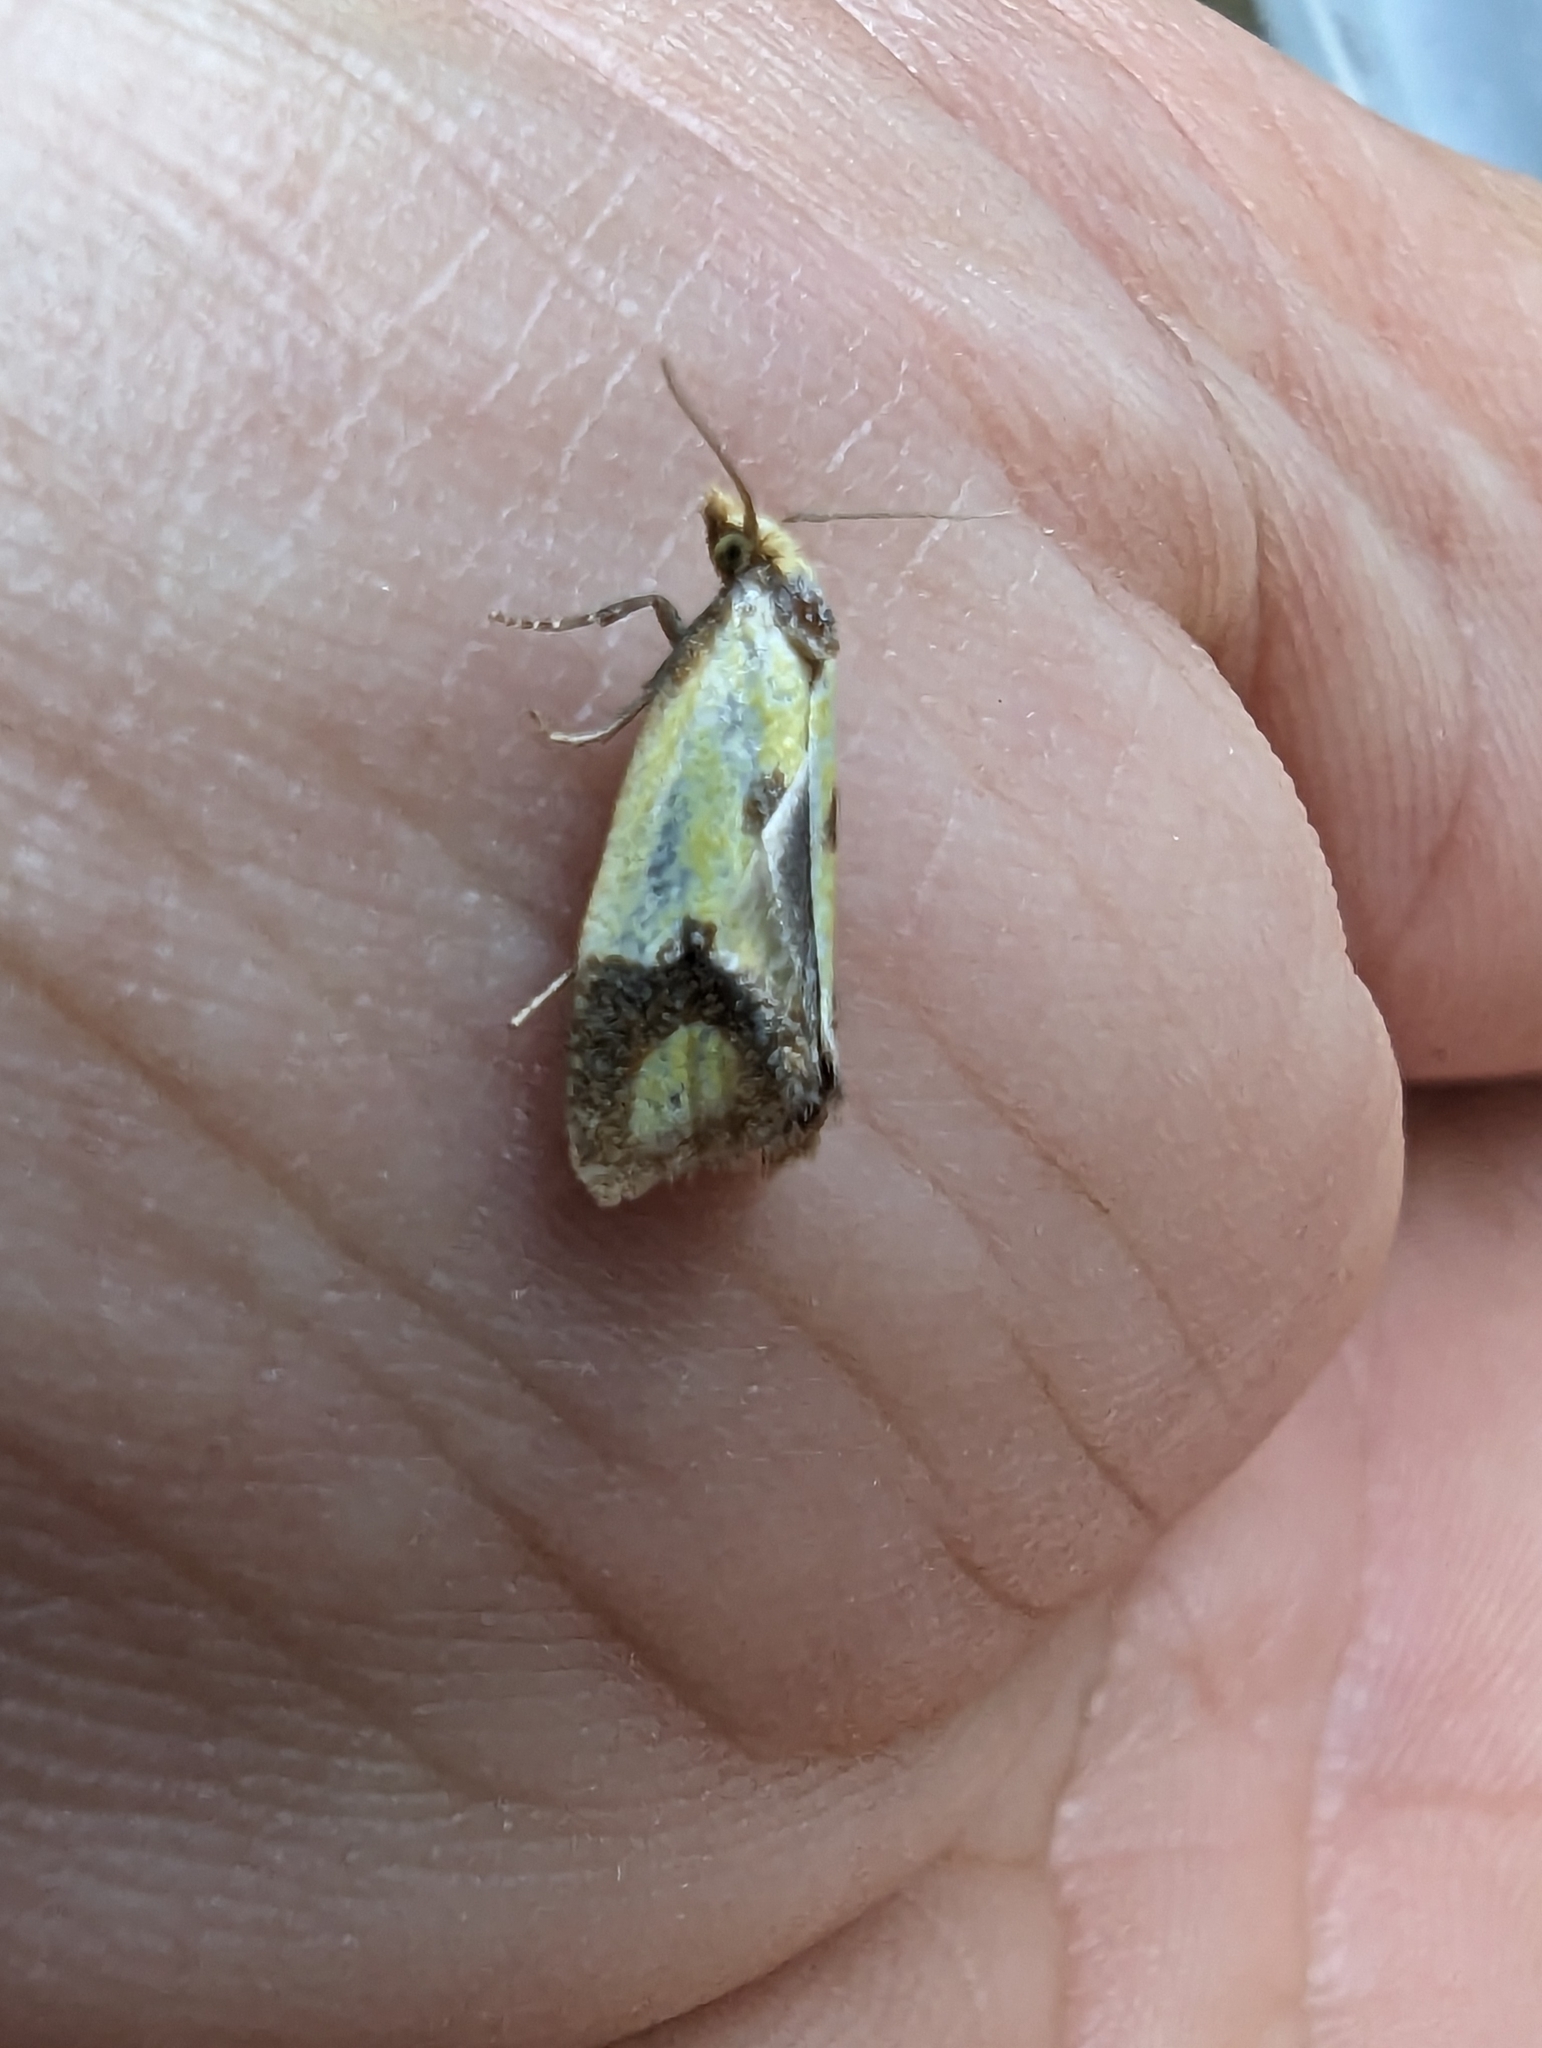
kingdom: Animalia
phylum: Arthropoda
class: Insecta
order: Lepidoptera
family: Tortricidae
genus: Agapeta
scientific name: Agapeta zoegana
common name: Sulfur knapweed root moth
